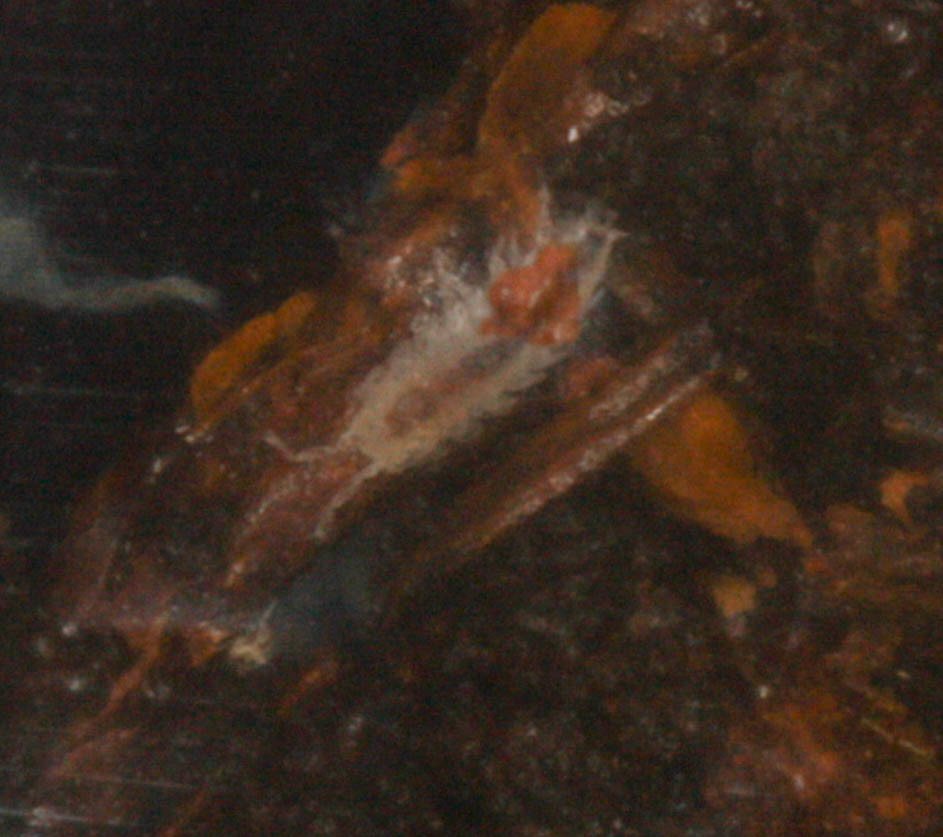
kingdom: Animalia
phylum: Arthropoda
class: Malacostraca
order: Isopoda
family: Trichoniscidae
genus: Brackenridgia
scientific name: Brackenridgia heroldi
